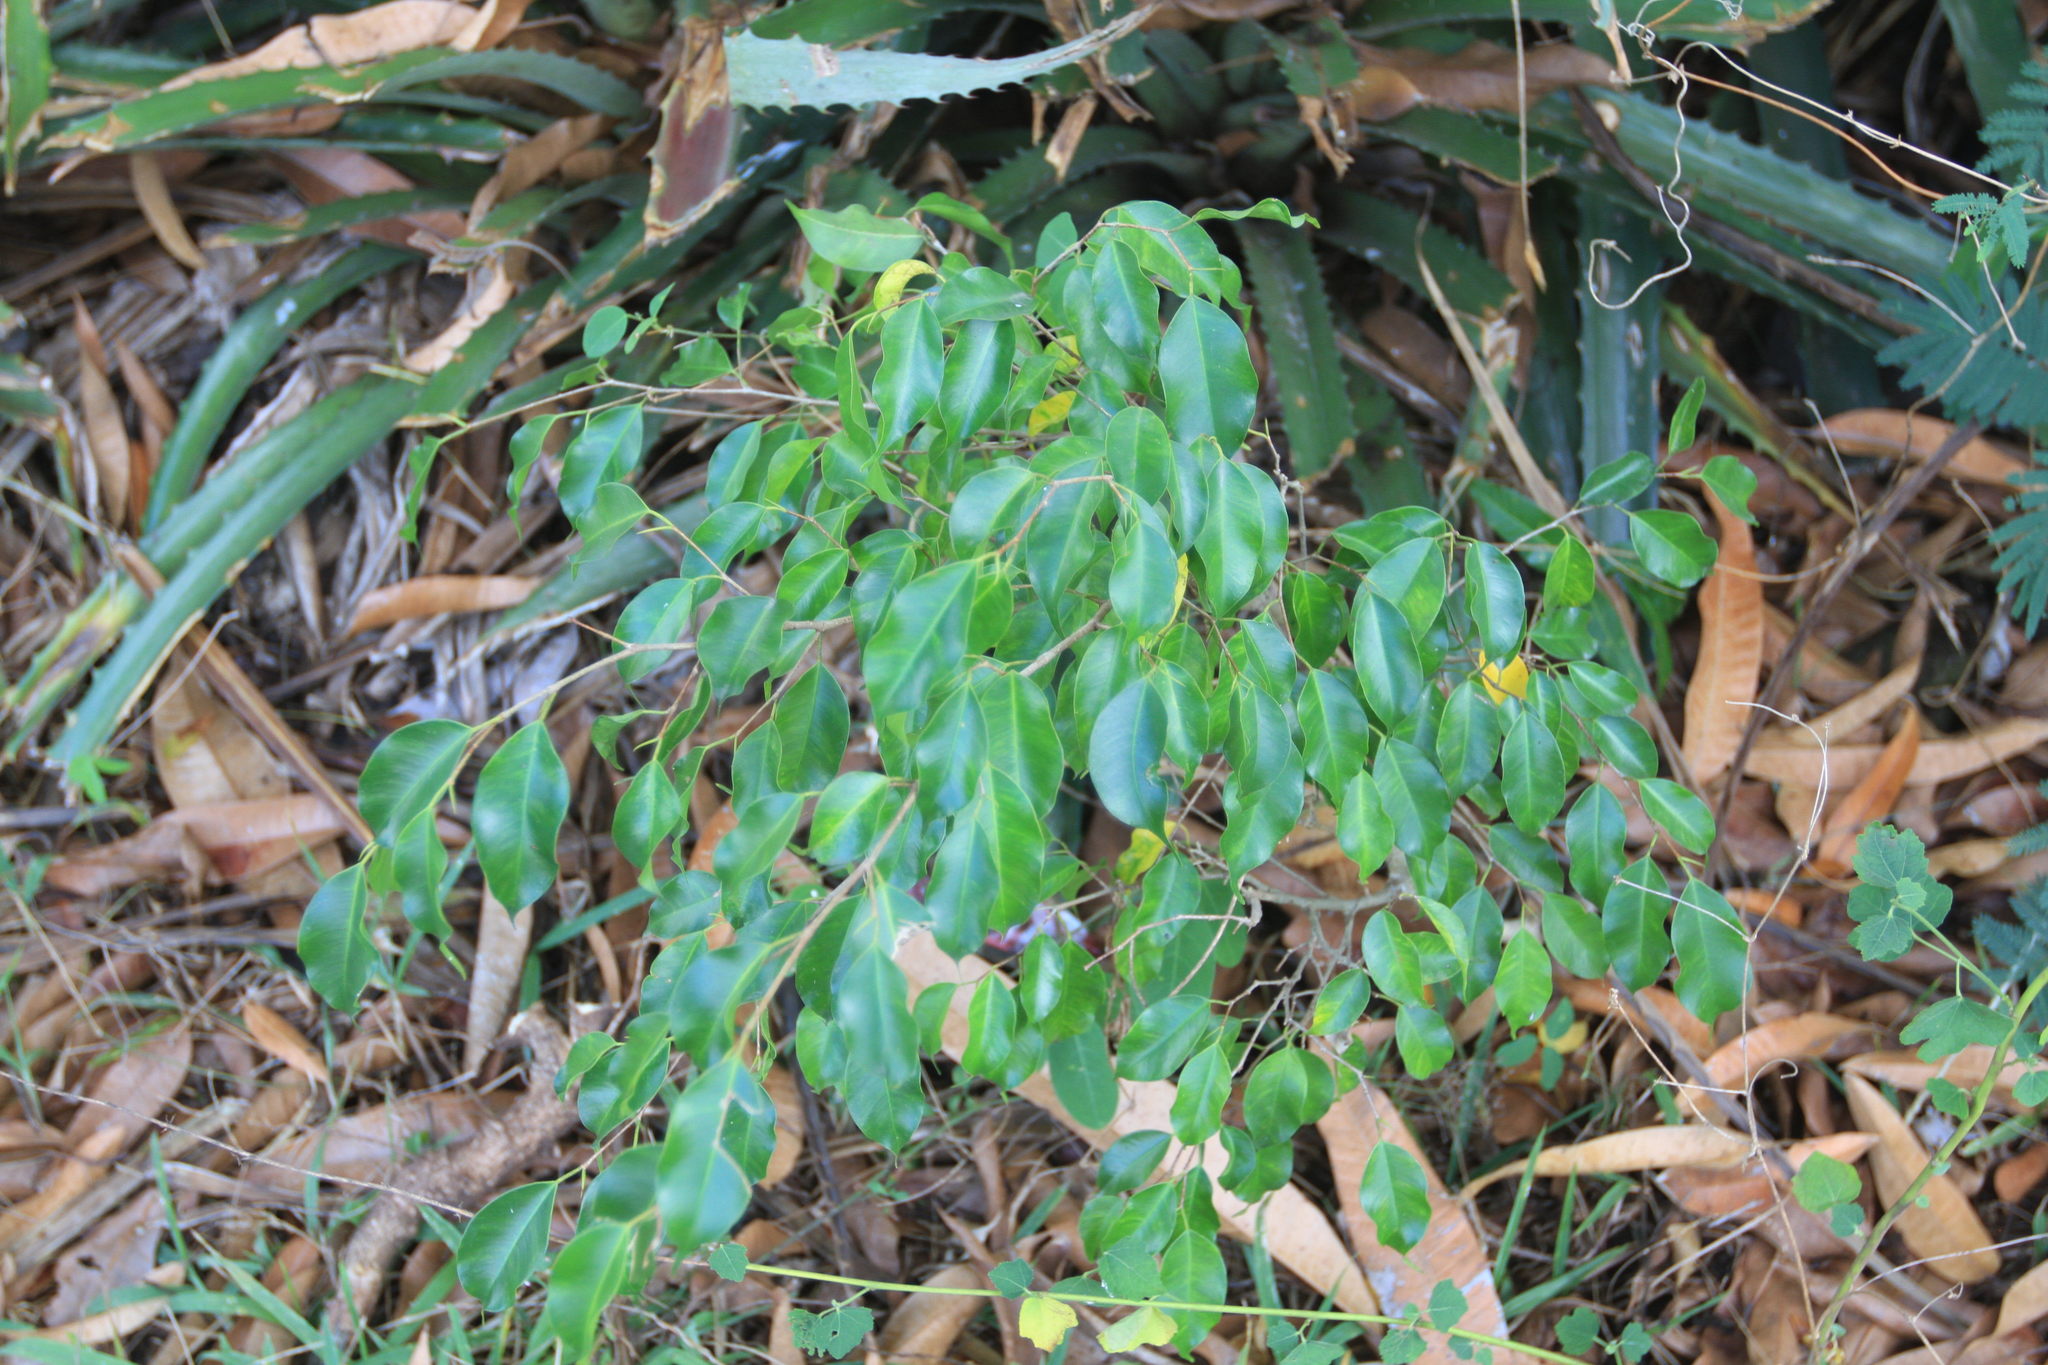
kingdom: Plantae
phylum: Tracheophyta
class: Magnoliopsida
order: Rosales
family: Moraceae
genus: Ficus
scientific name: Ficus benjamina
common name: Weeping fig
